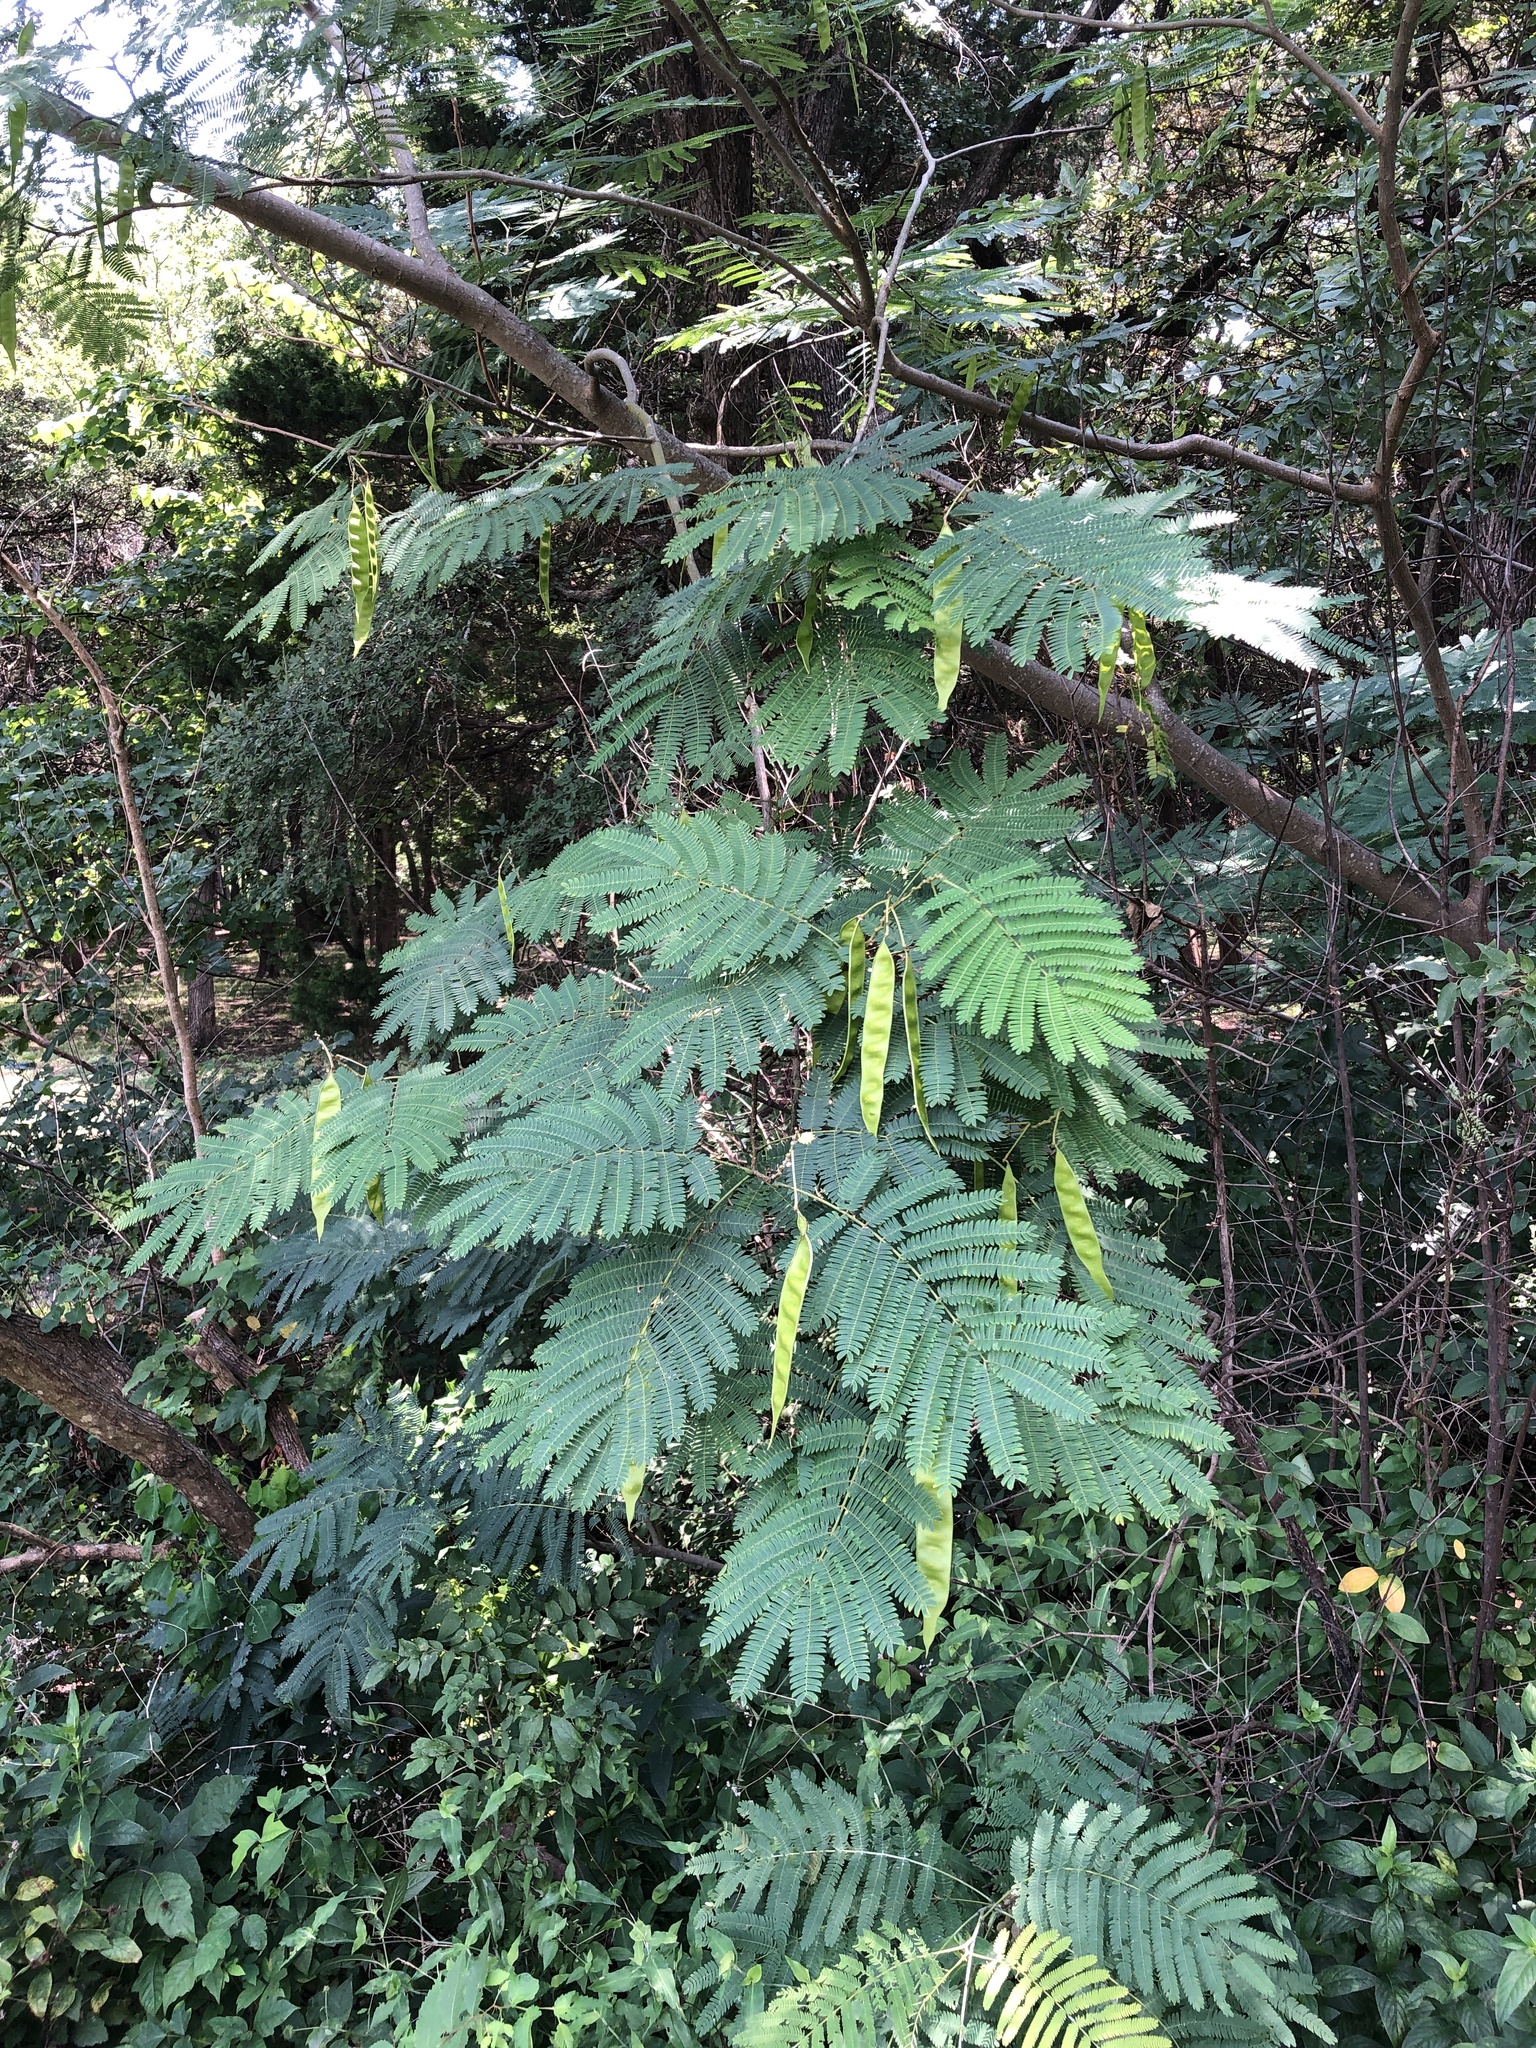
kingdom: Plantae
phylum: Tracheophyta
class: Magnoliopsida
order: Fabales
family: Fabaceae
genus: Albizia
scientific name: Albizia julibrissin
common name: Silktree
